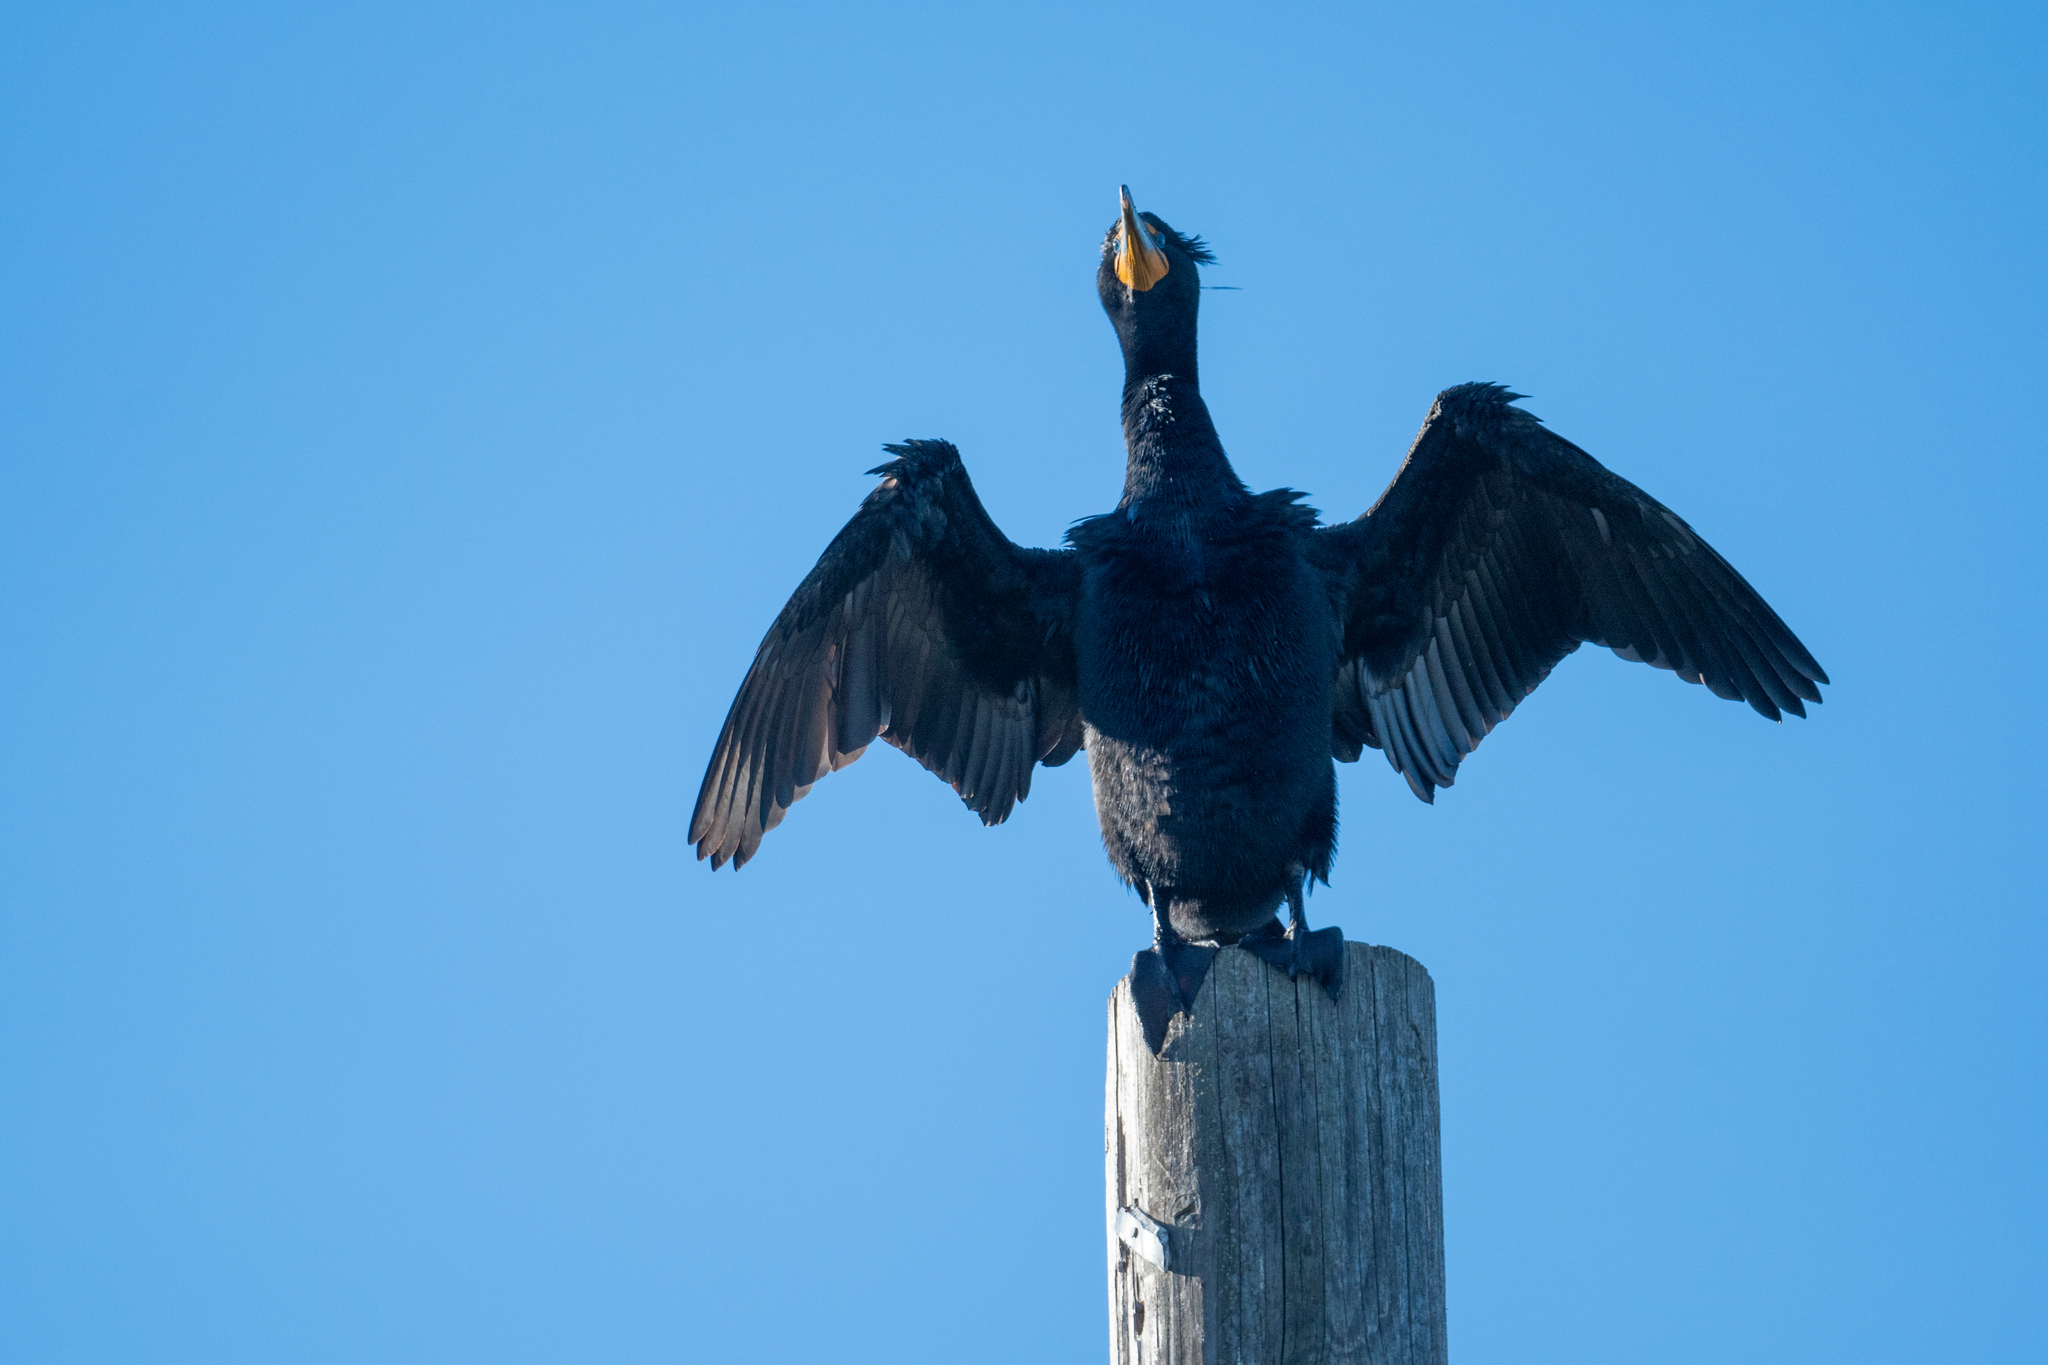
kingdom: Animalia
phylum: Chordata
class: Aves
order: Suliformes
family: Phalacrocoracidae
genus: Phalacrocorax
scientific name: Phalacrocorax auritus
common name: Double-crested cormorant
